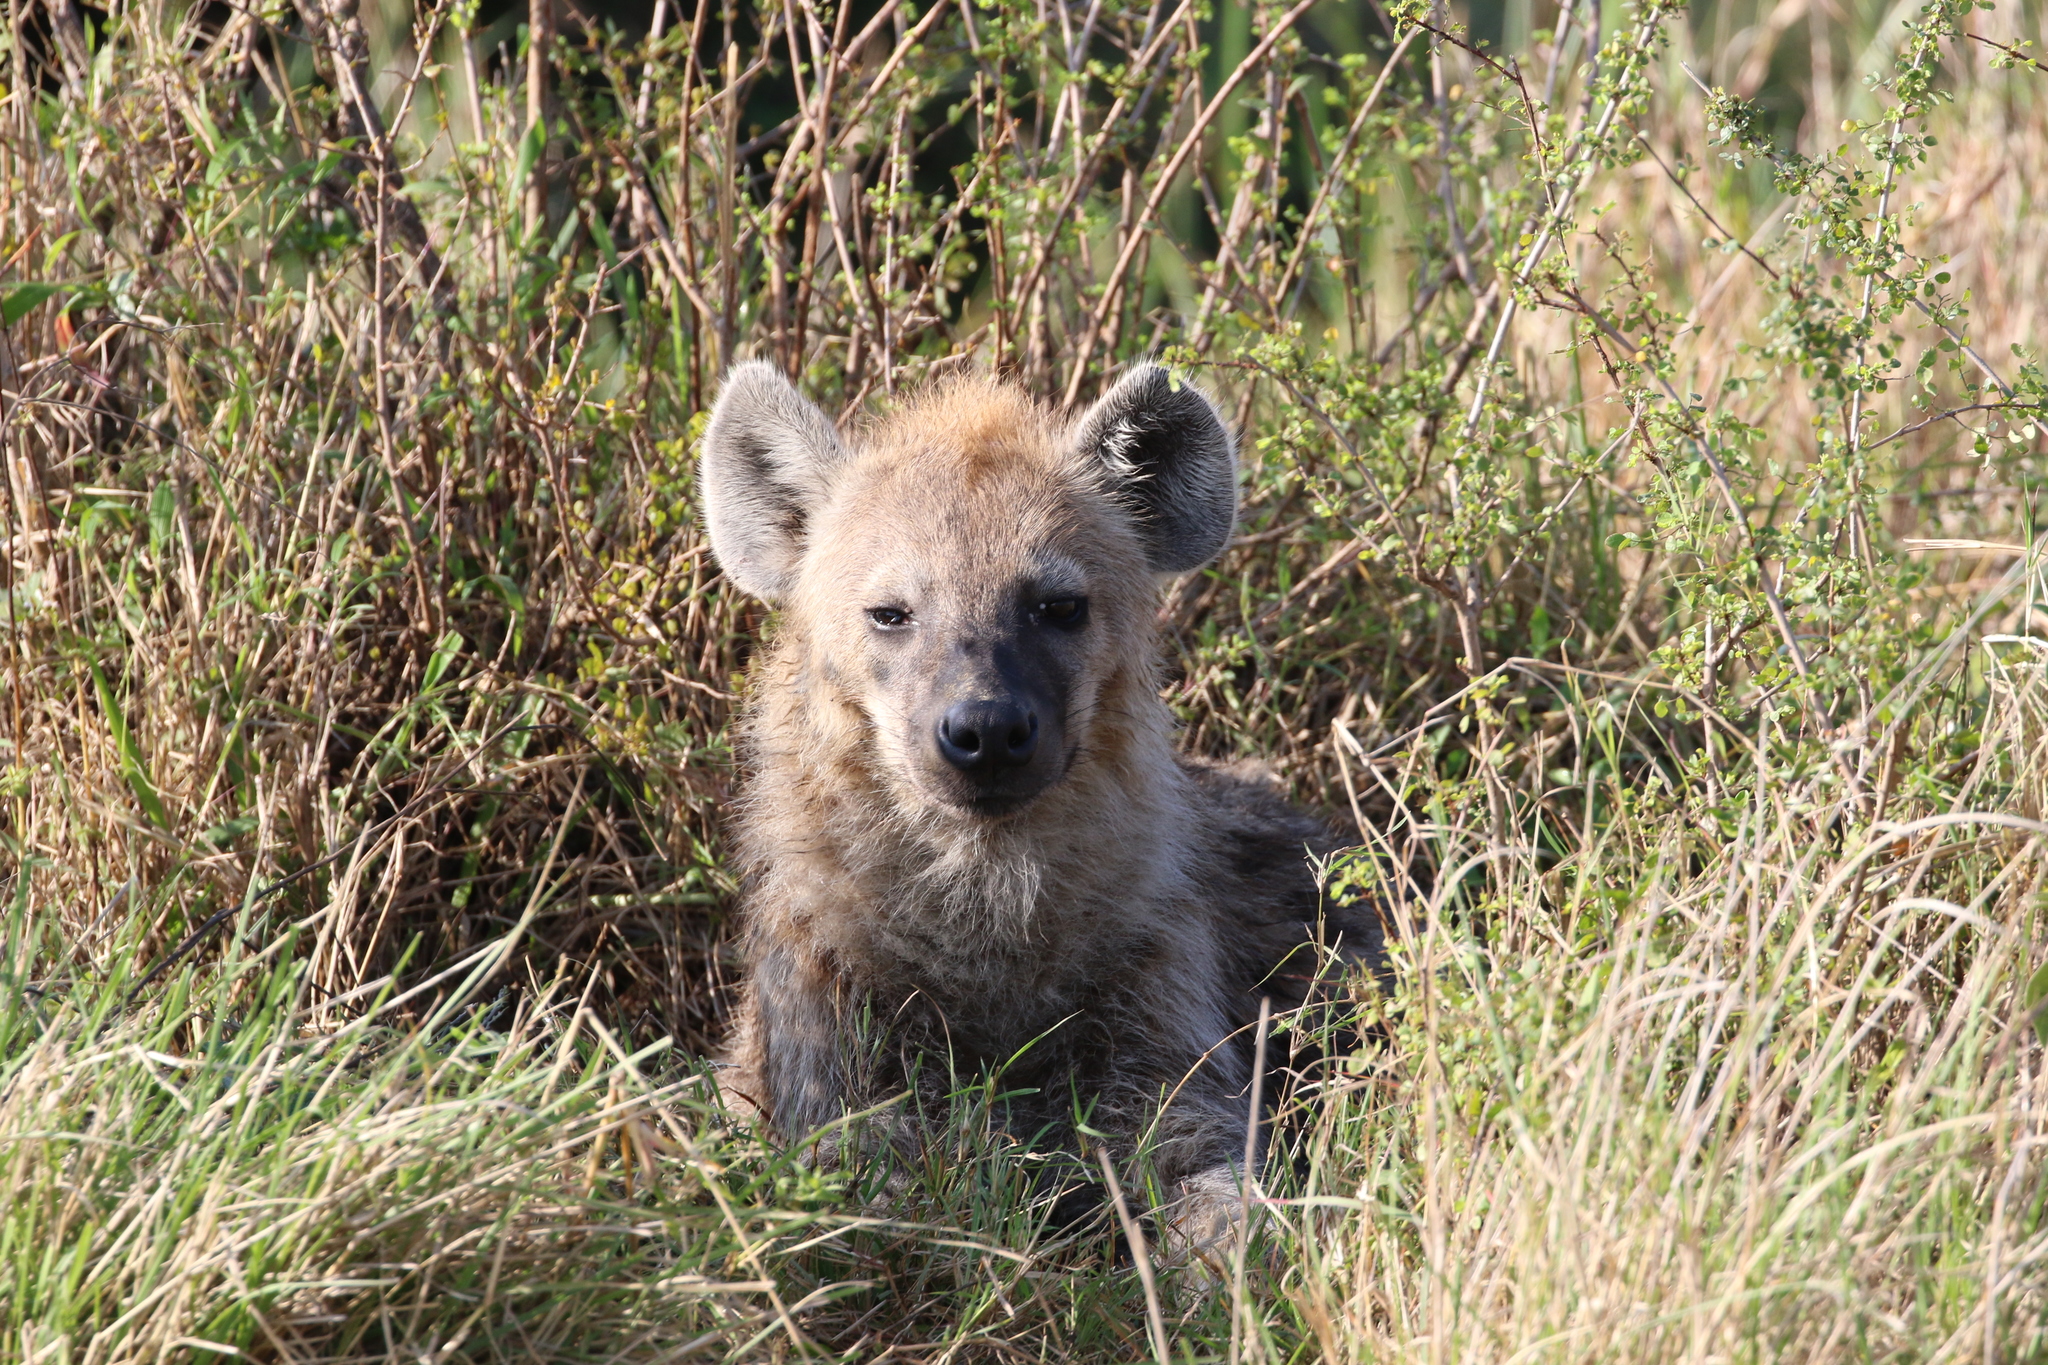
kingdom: Animalia
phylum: Chordata
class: Mammalia
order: Carnivora
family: Hyaenidae
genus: Crocuta
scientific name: Crocuta crocuta
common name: Spotted hyaena
